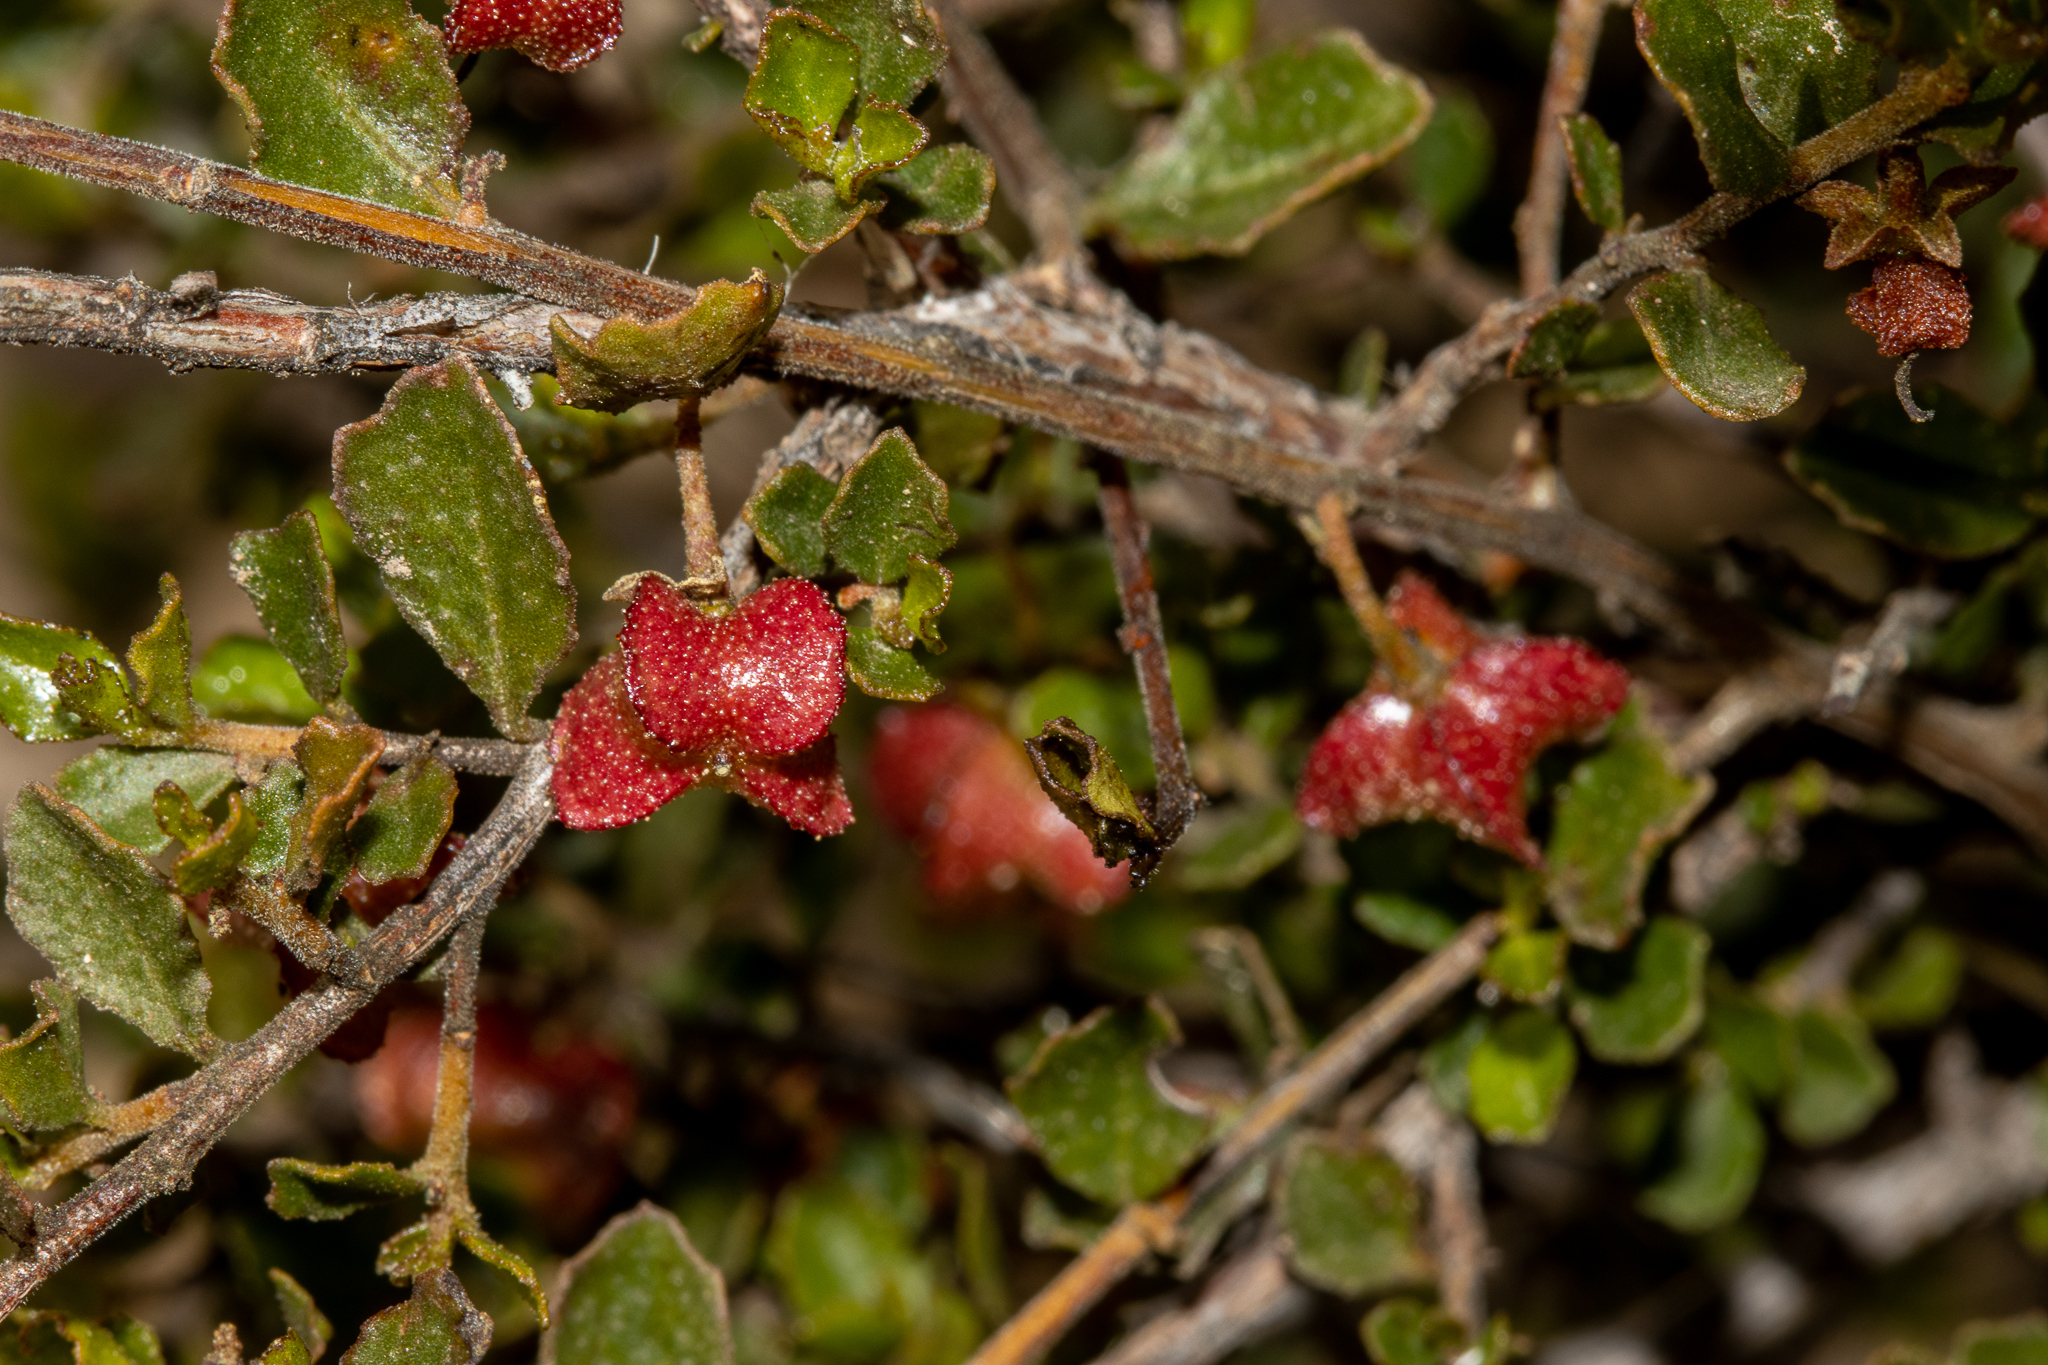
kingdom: Plantae
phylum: Tracheophyta
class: Magnoliopsida
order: Sapindales
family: Sapindaceae
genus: Dodonaea
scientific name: Dodonaea baueri
